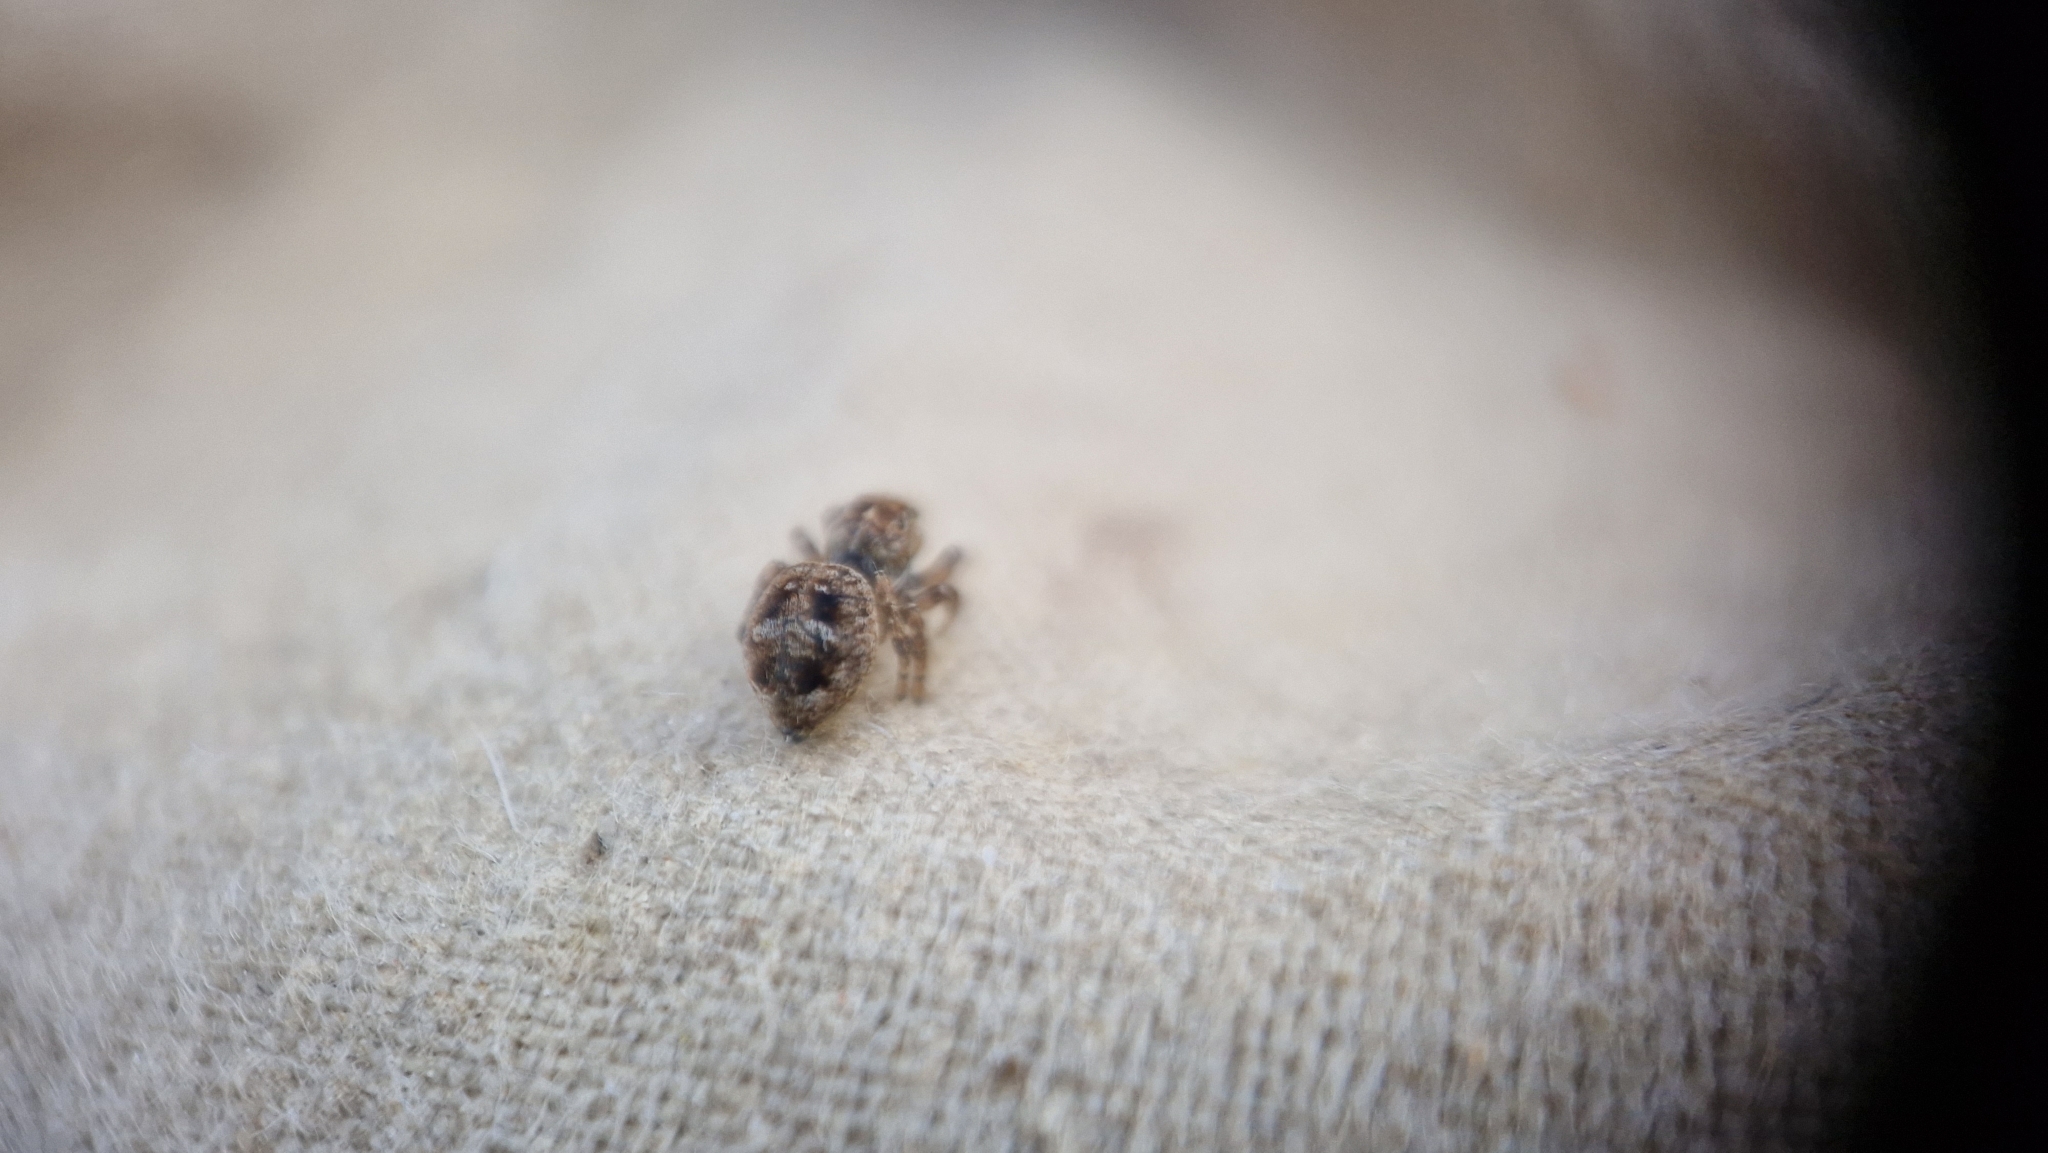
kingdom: Animalia
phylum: Arthropoda
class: Arachnida
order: Araneae
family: Salticidae
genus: Attulus
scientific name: Attulus floricola
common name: Flower jumping spider
